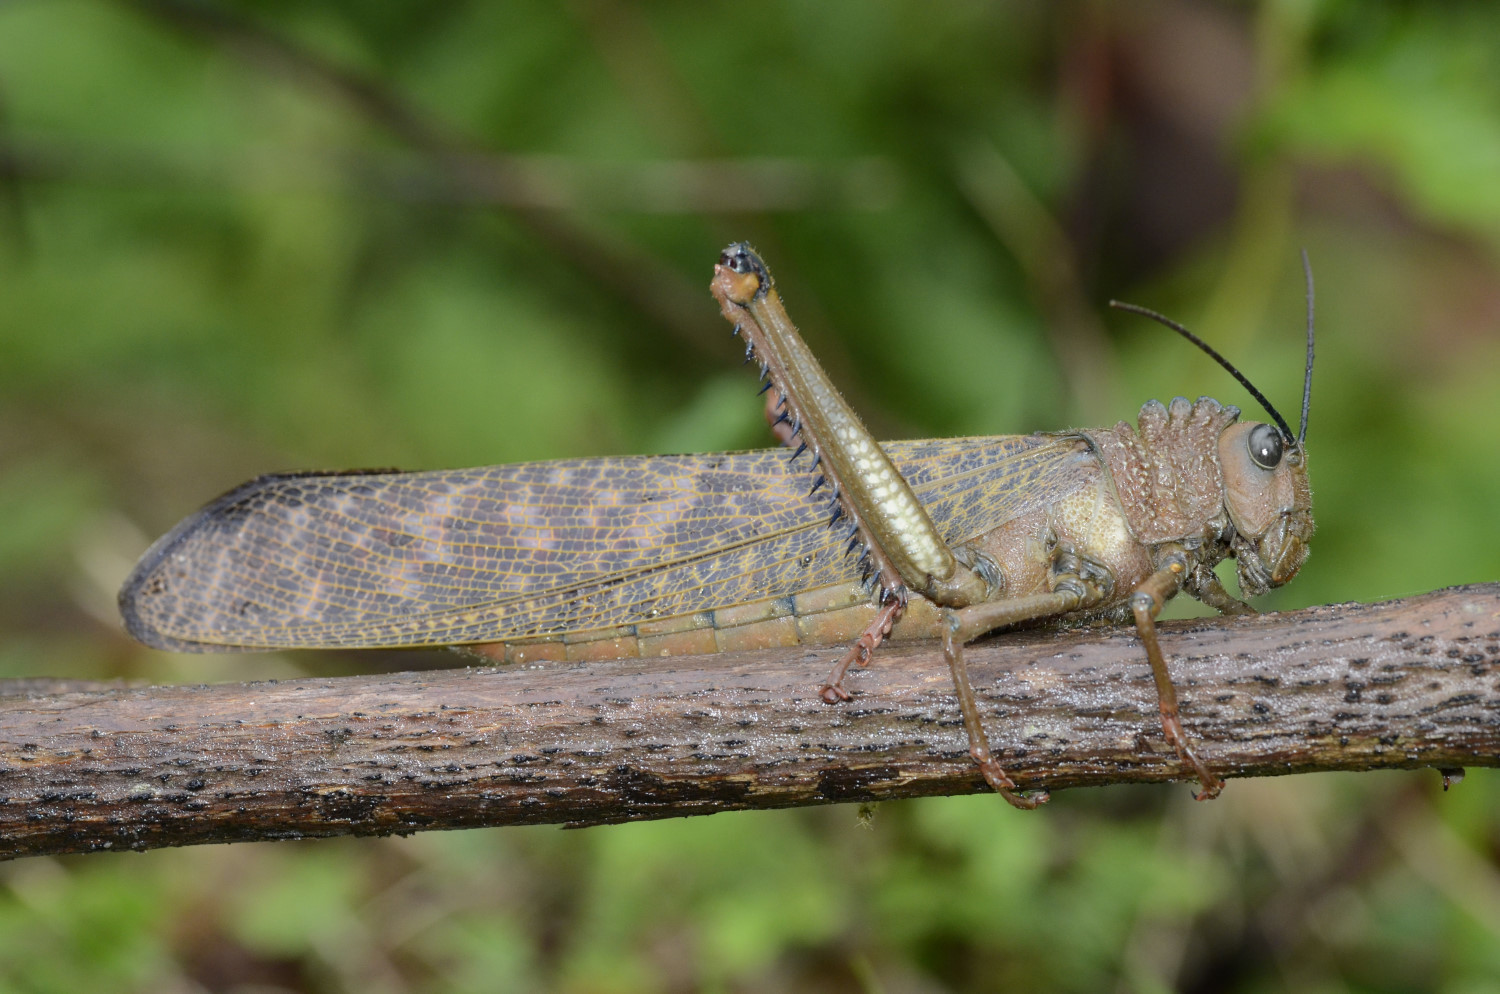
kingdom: Animalia
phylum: Arthropoda
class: Insecta
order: Orthoptera
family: Romaleidae
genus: Tropidacris
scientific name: Tropidacris cristata
